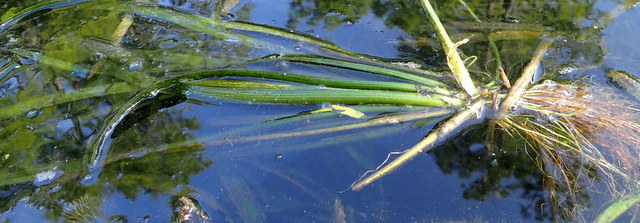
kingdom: Plantae
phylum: Tracheophyta
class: Liliopsida
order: Alismatales
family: Alismataceae
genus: Sagittaria
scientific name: Sagittaria kurziana
